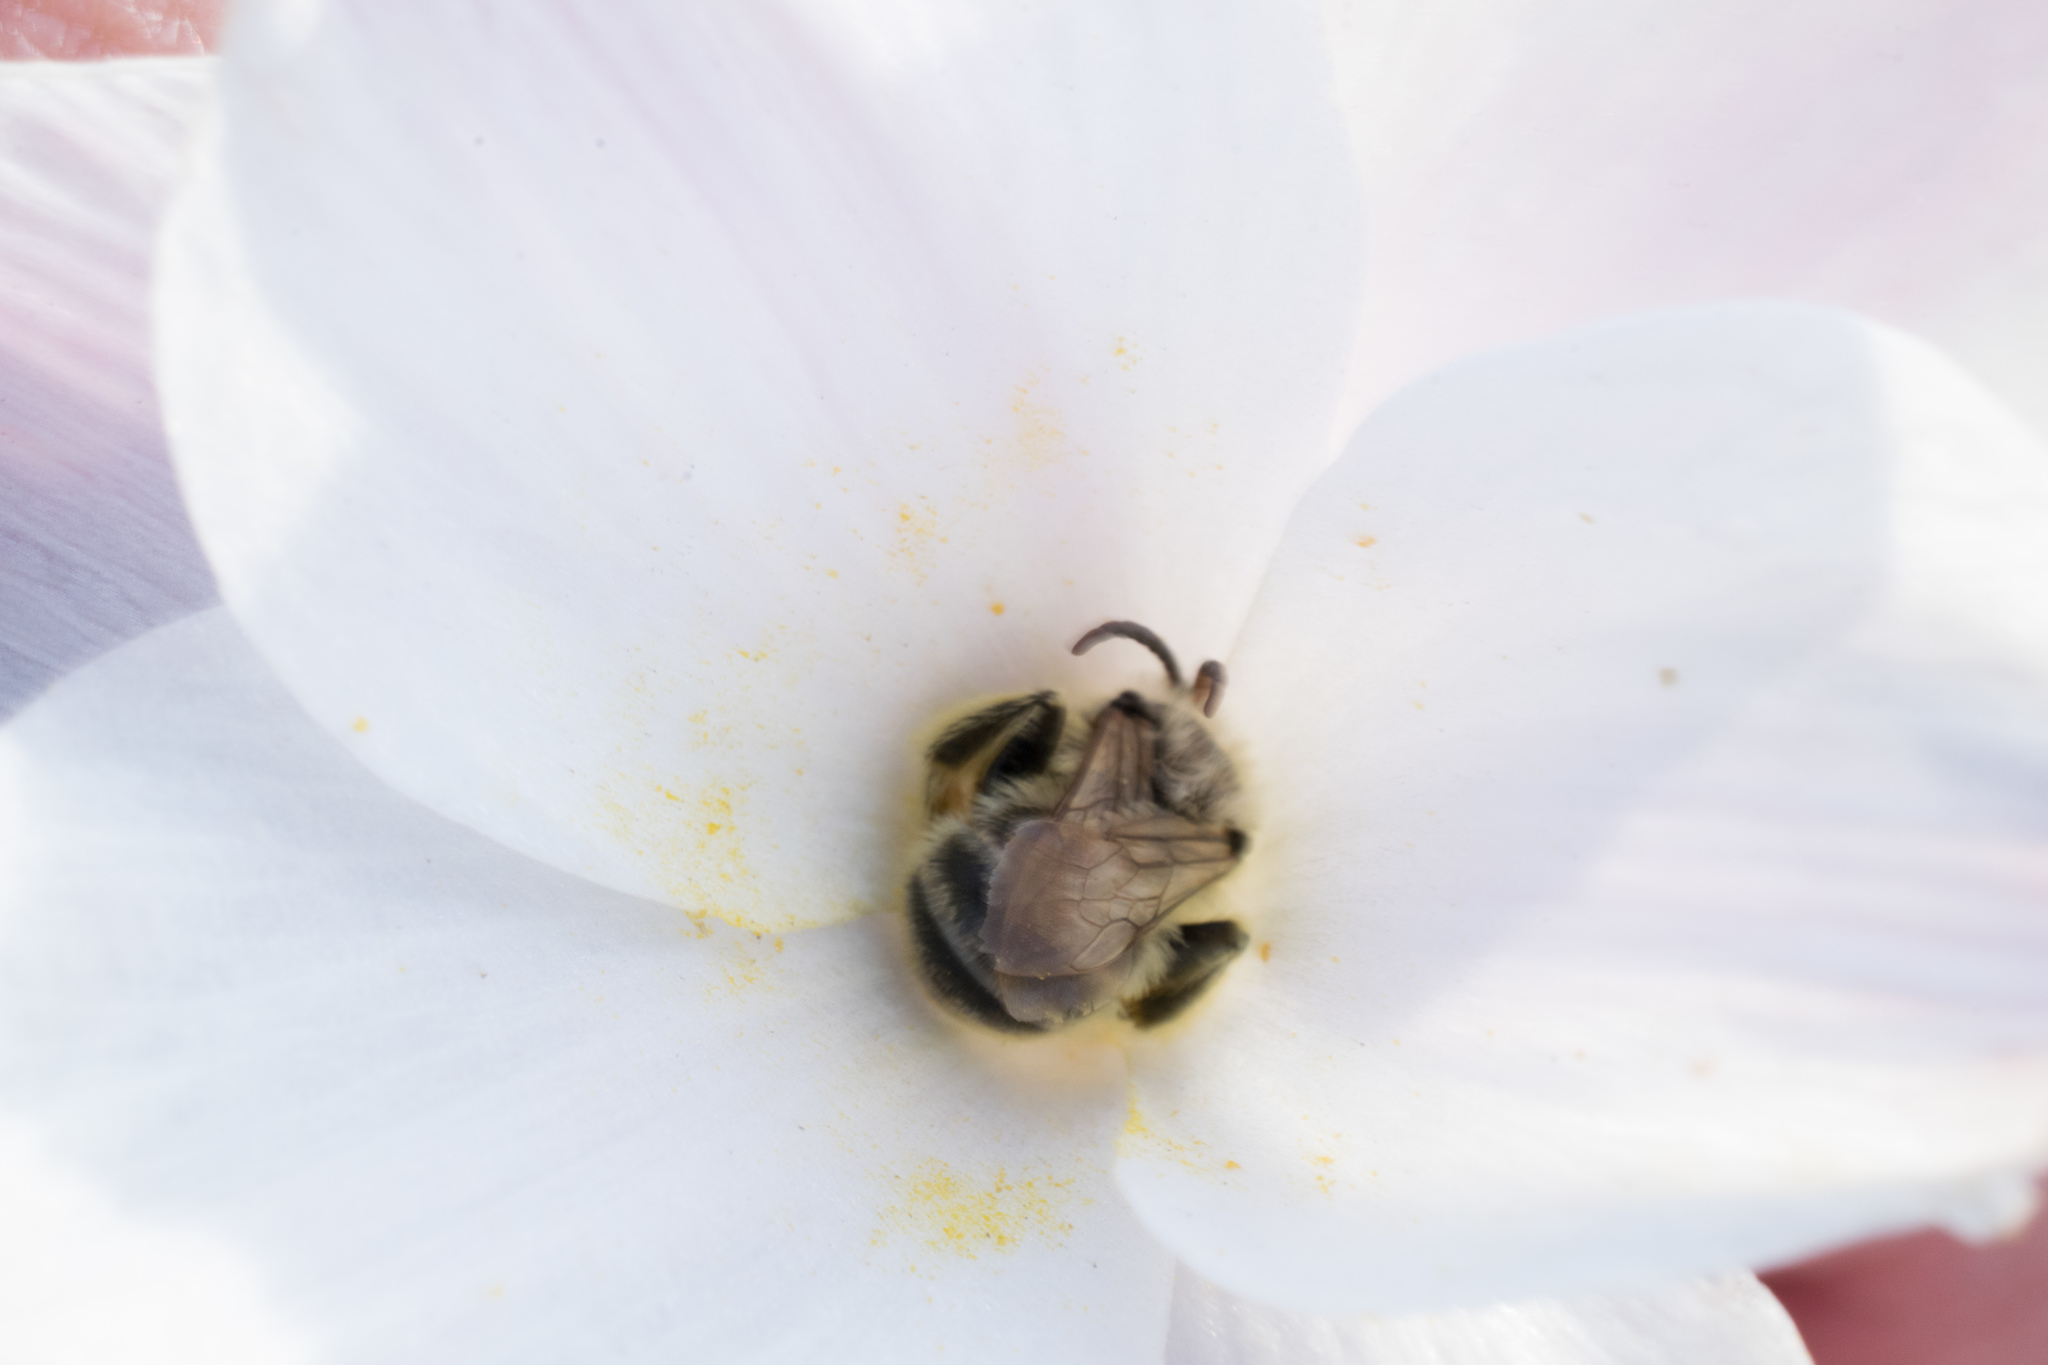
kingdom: Plantae
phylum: Tracheophyta
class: Liliopsida
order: Asparagales
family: Amaryllidaceae
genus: Zephyranthes
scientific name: Zephyranthes drummondii
